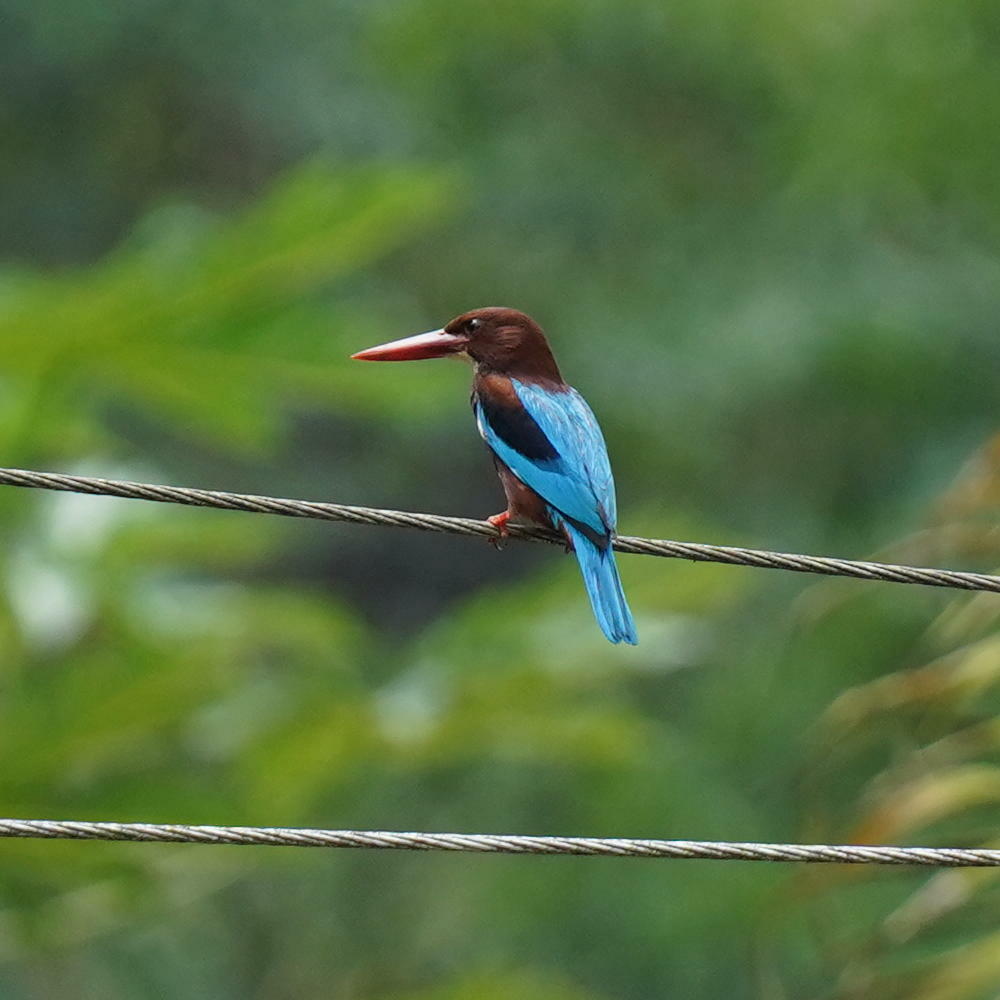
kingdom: Animalia
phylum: Chordata
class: Aves
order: Coraciiformes
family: Alcedinidae
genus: Halcyon
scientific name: Halcyon smyrnensis
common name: White-throated kingfisher
